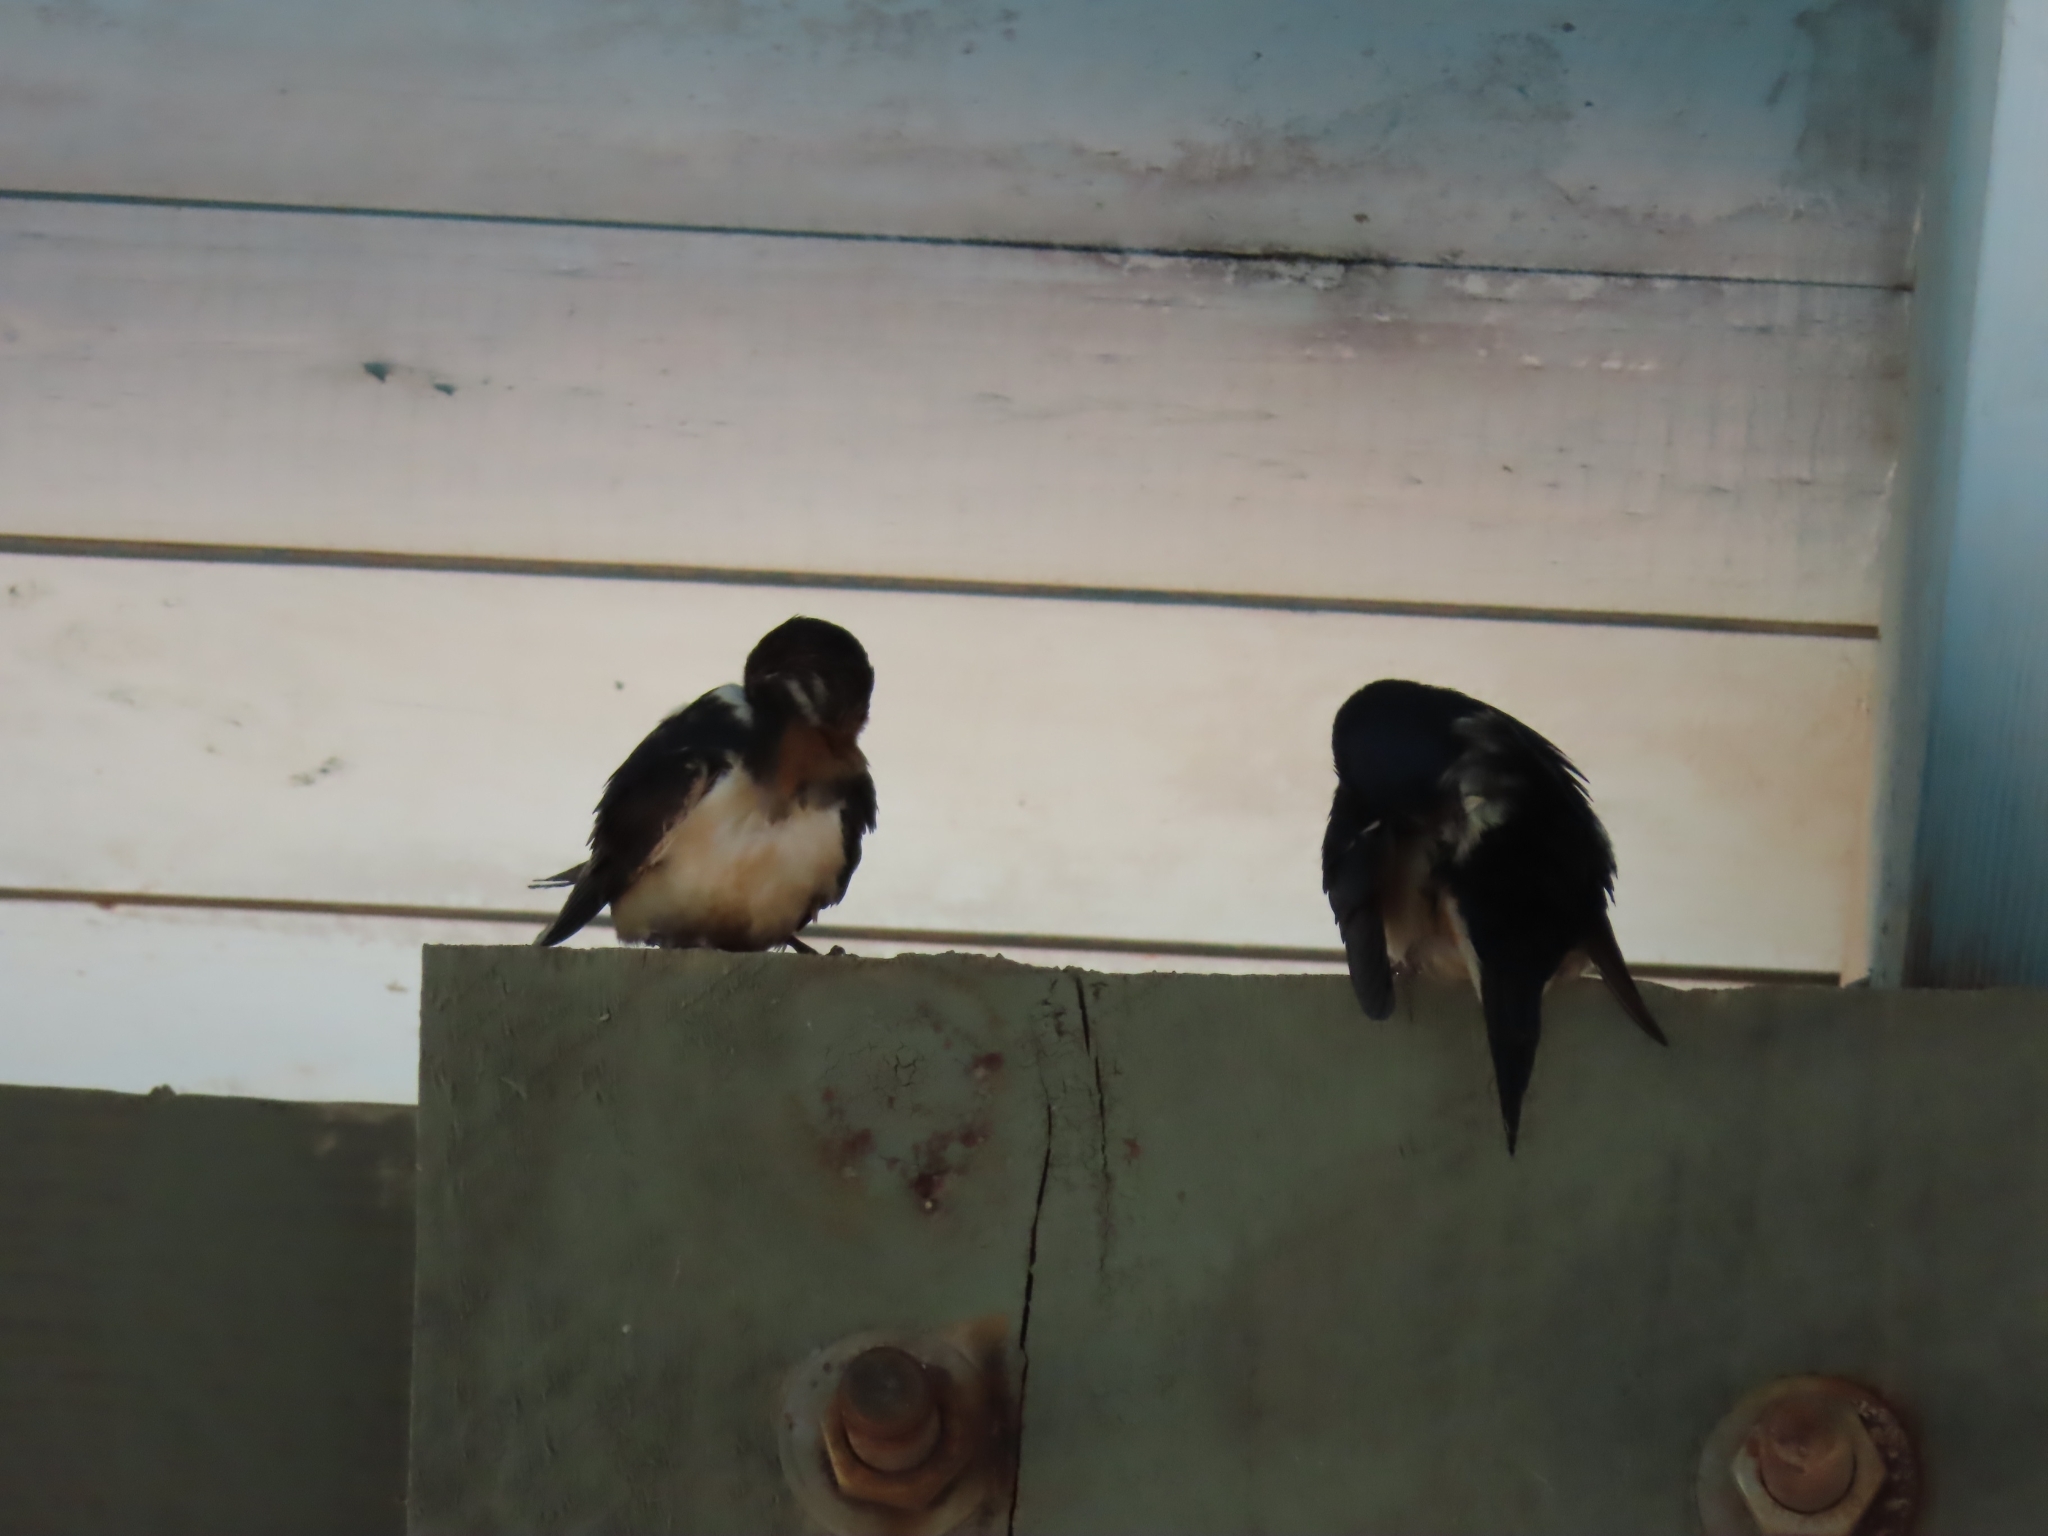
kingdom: Animalia
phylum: Chordata
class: Aves
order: Passeriformes
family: Hirundinidae
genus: Hirundo
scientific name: Hirundo rustica
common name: Barn swallow
